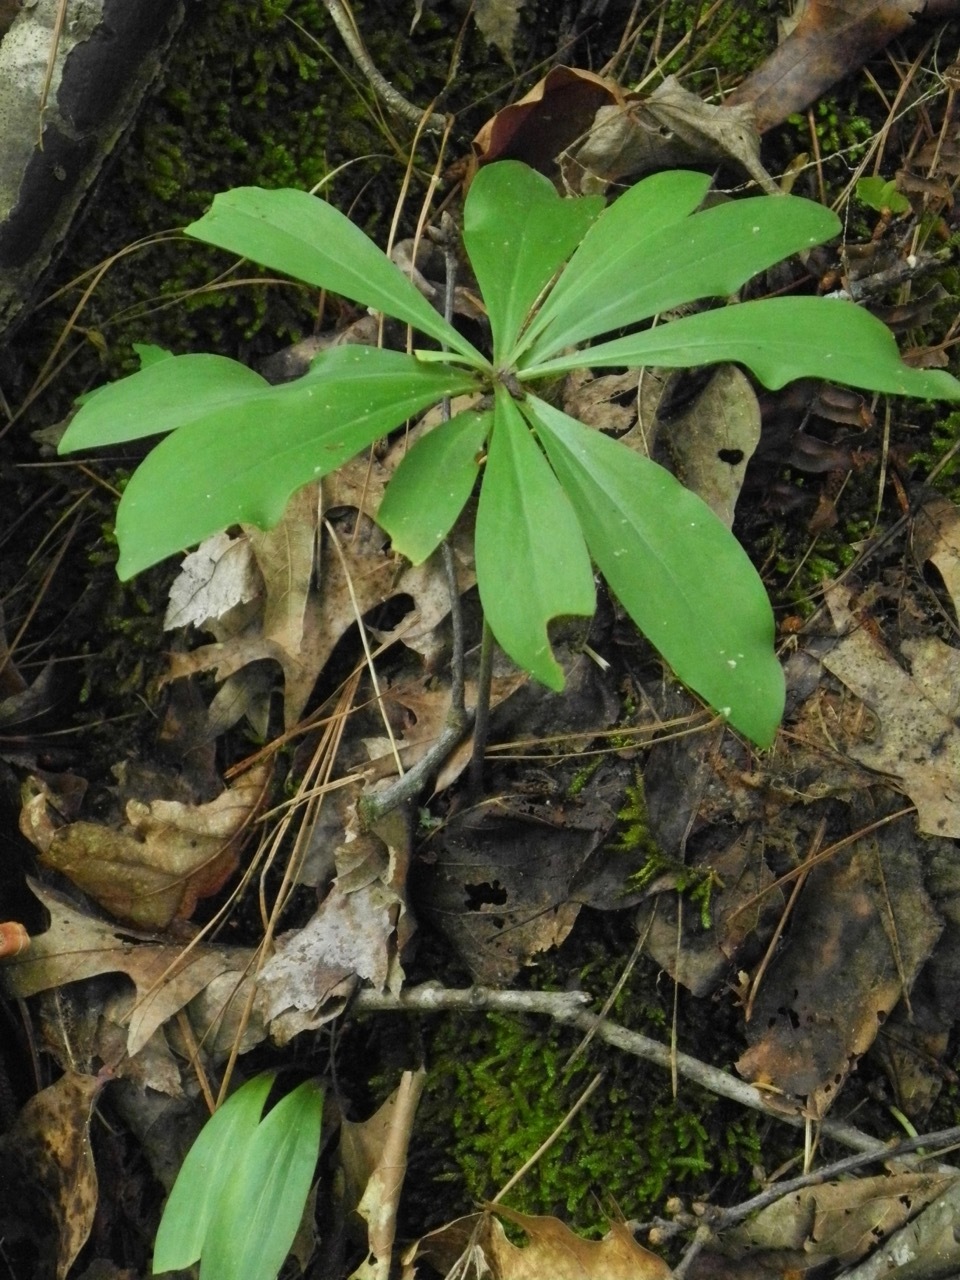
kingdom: Plantae
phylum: Tracheophyta
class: Liliopsida
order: Liliales
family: Liliaceae
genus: Lilium
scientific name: Lilium michauxii
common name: Carolina lily
